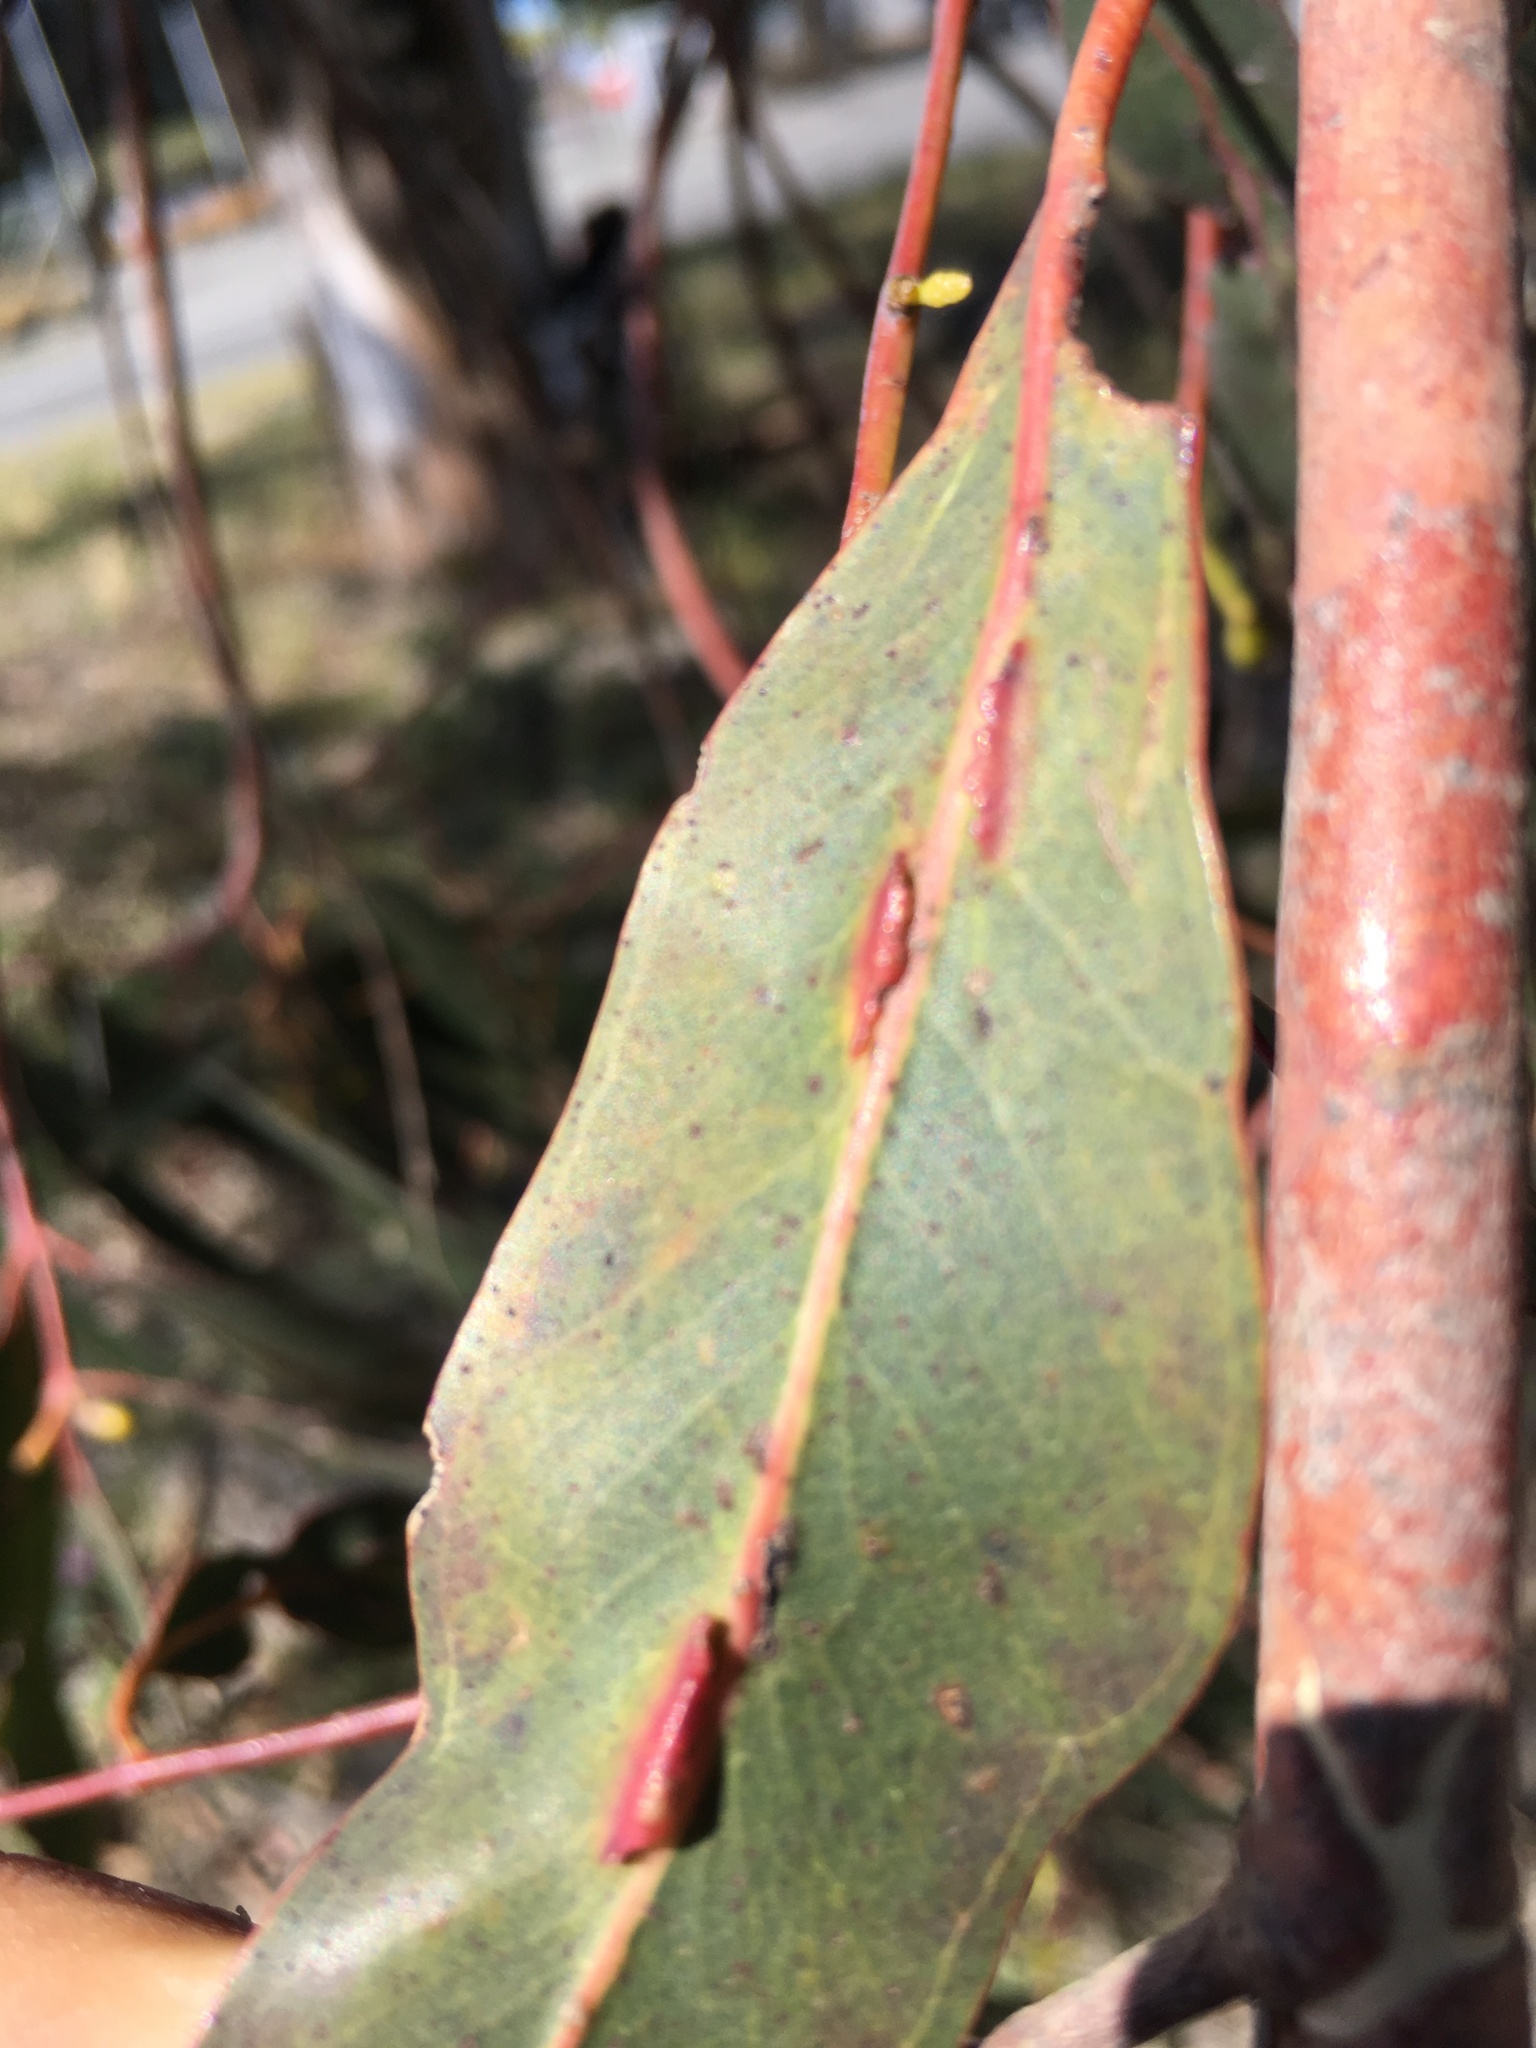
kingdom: Animalia
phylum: Arthropoda
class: Insecta
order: Hymenoptera
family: Pteromalidae
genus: Nambouria
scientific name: Nambouria xanthops
